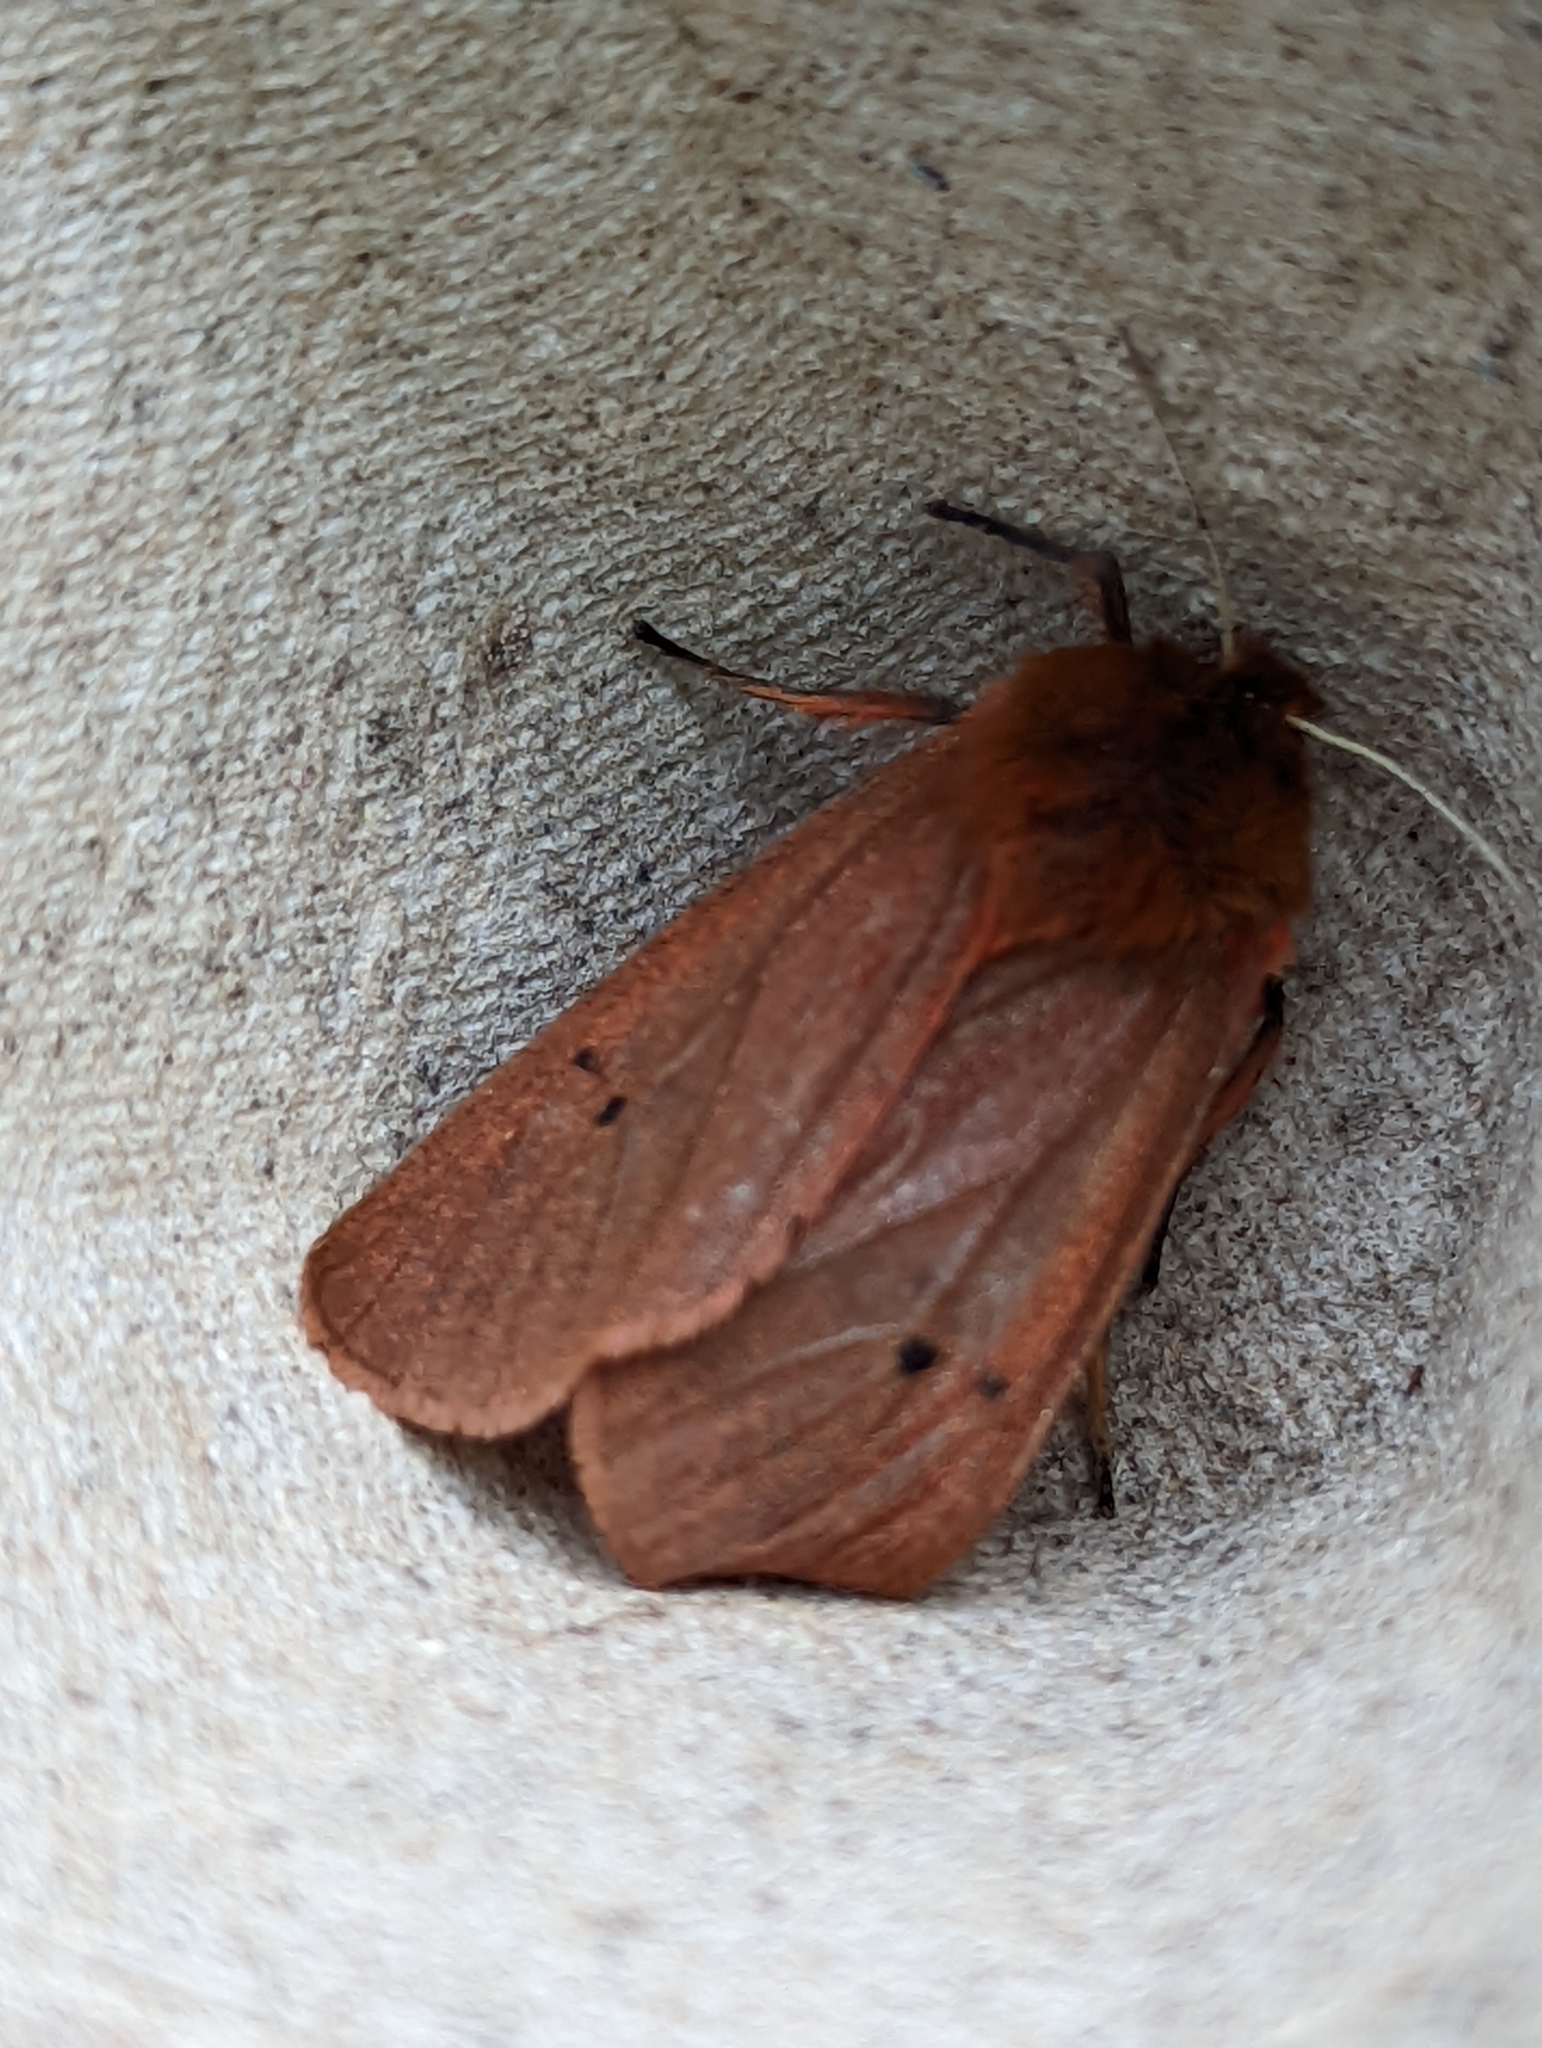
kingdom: Animalia
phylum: Arthropoda
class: Insecta
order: Lepidoptera
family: Erebidae
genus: Phragmatobia
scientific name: Phragmatobia fuliginosa
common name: Ruby tiger
